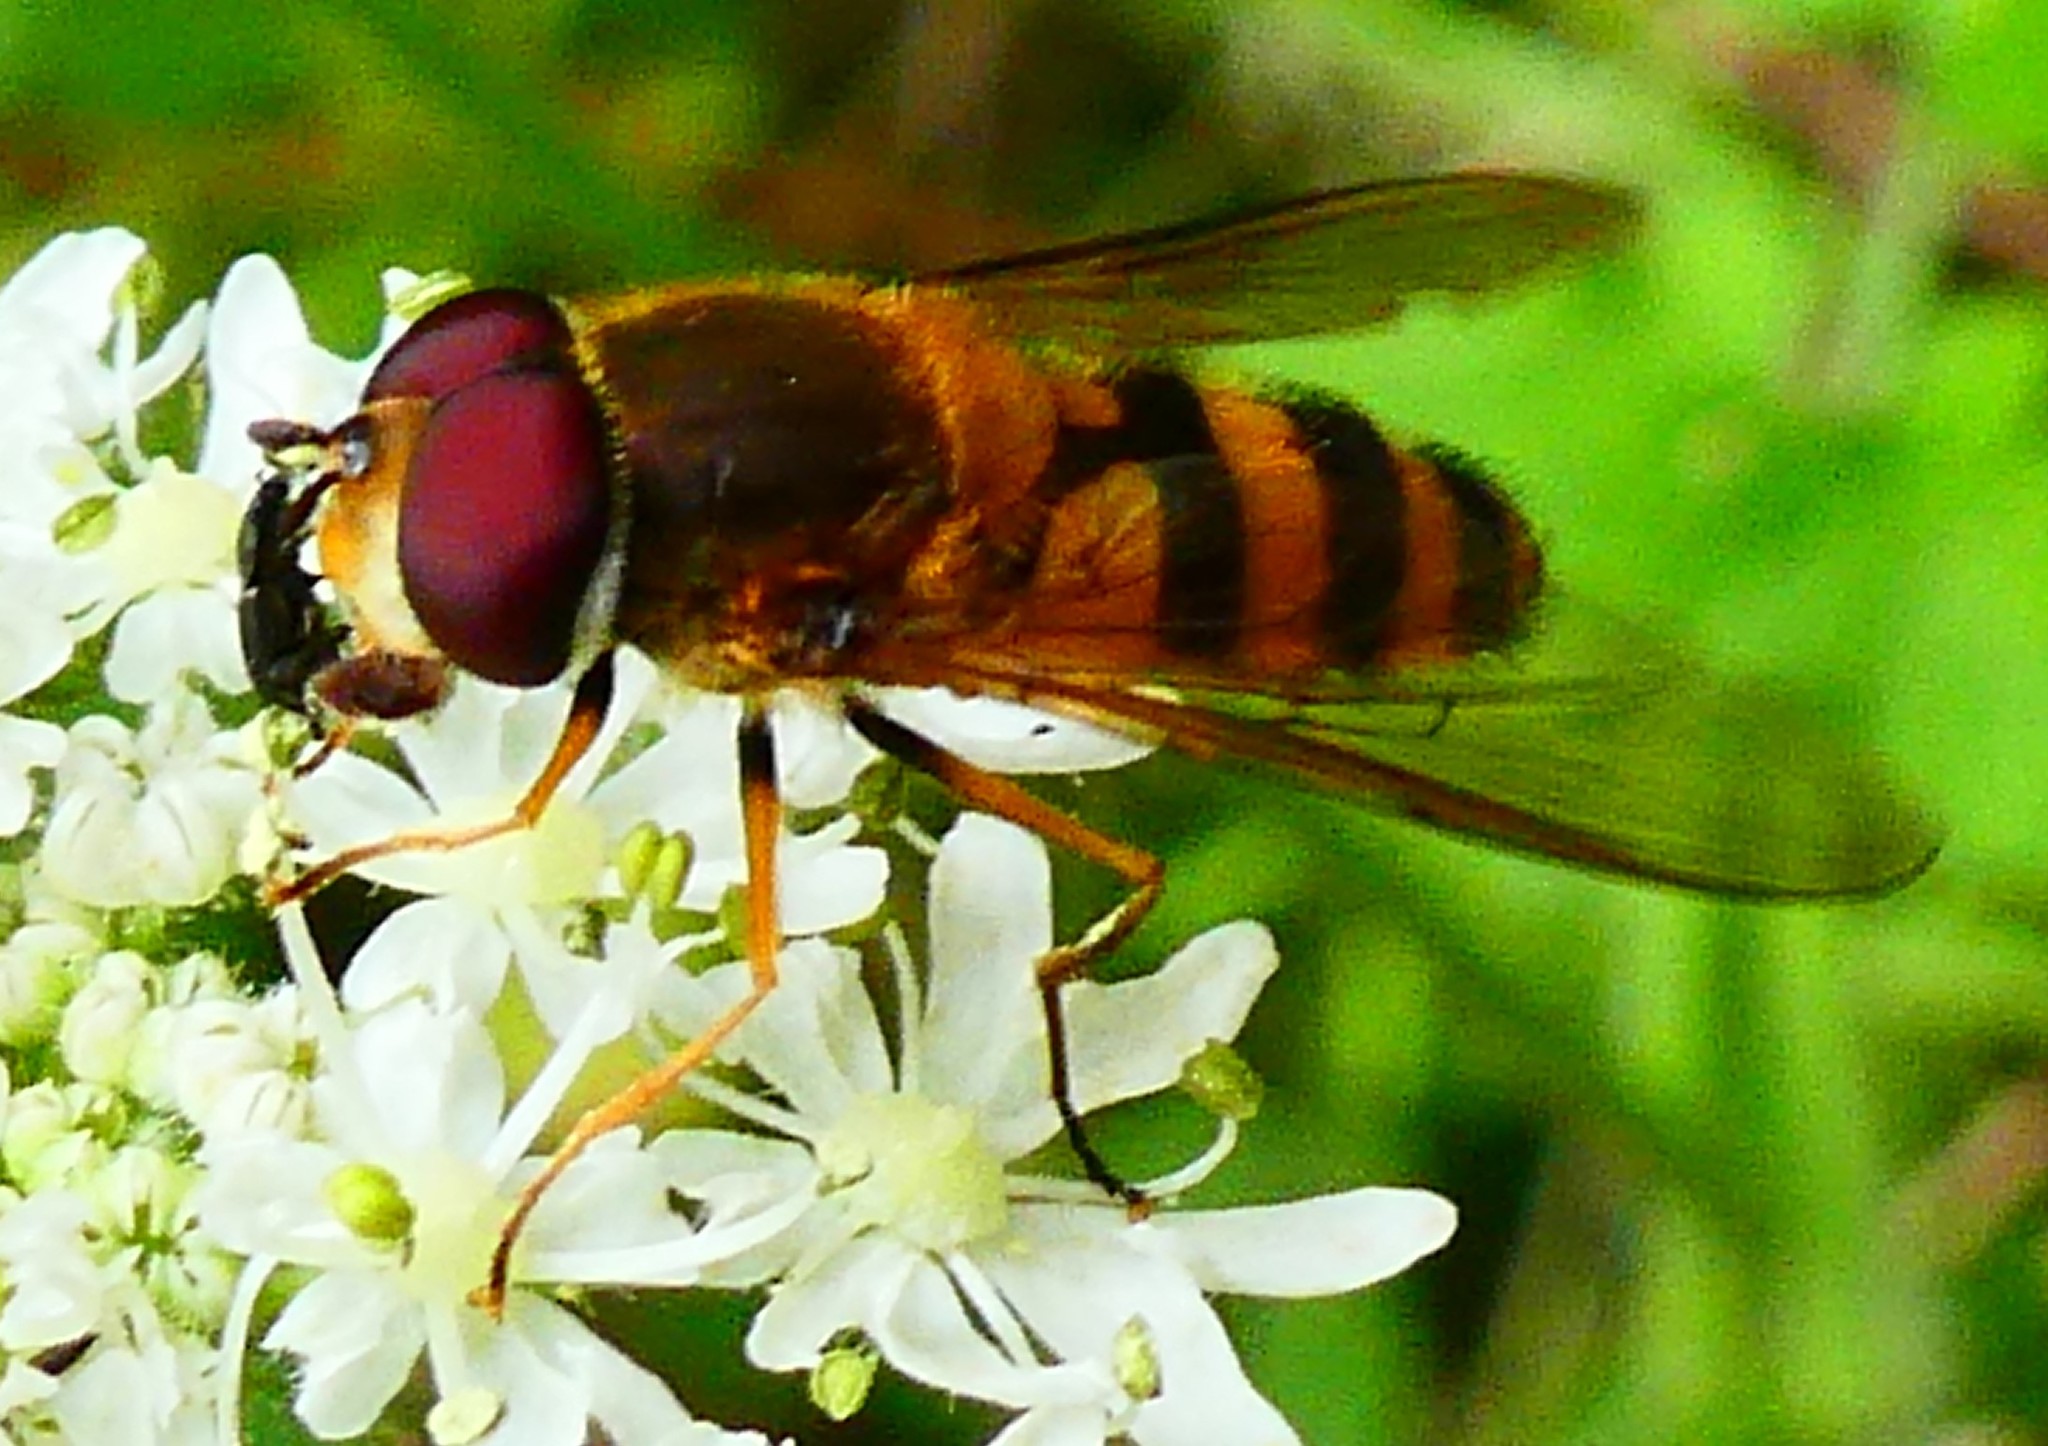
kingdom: Animalia
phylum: Arthropoda
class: Insecta
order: Diptera
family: Syrphidae
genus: Epistrophe
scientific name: Epistrophe grossulariae
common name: Black-horned smoothtail
